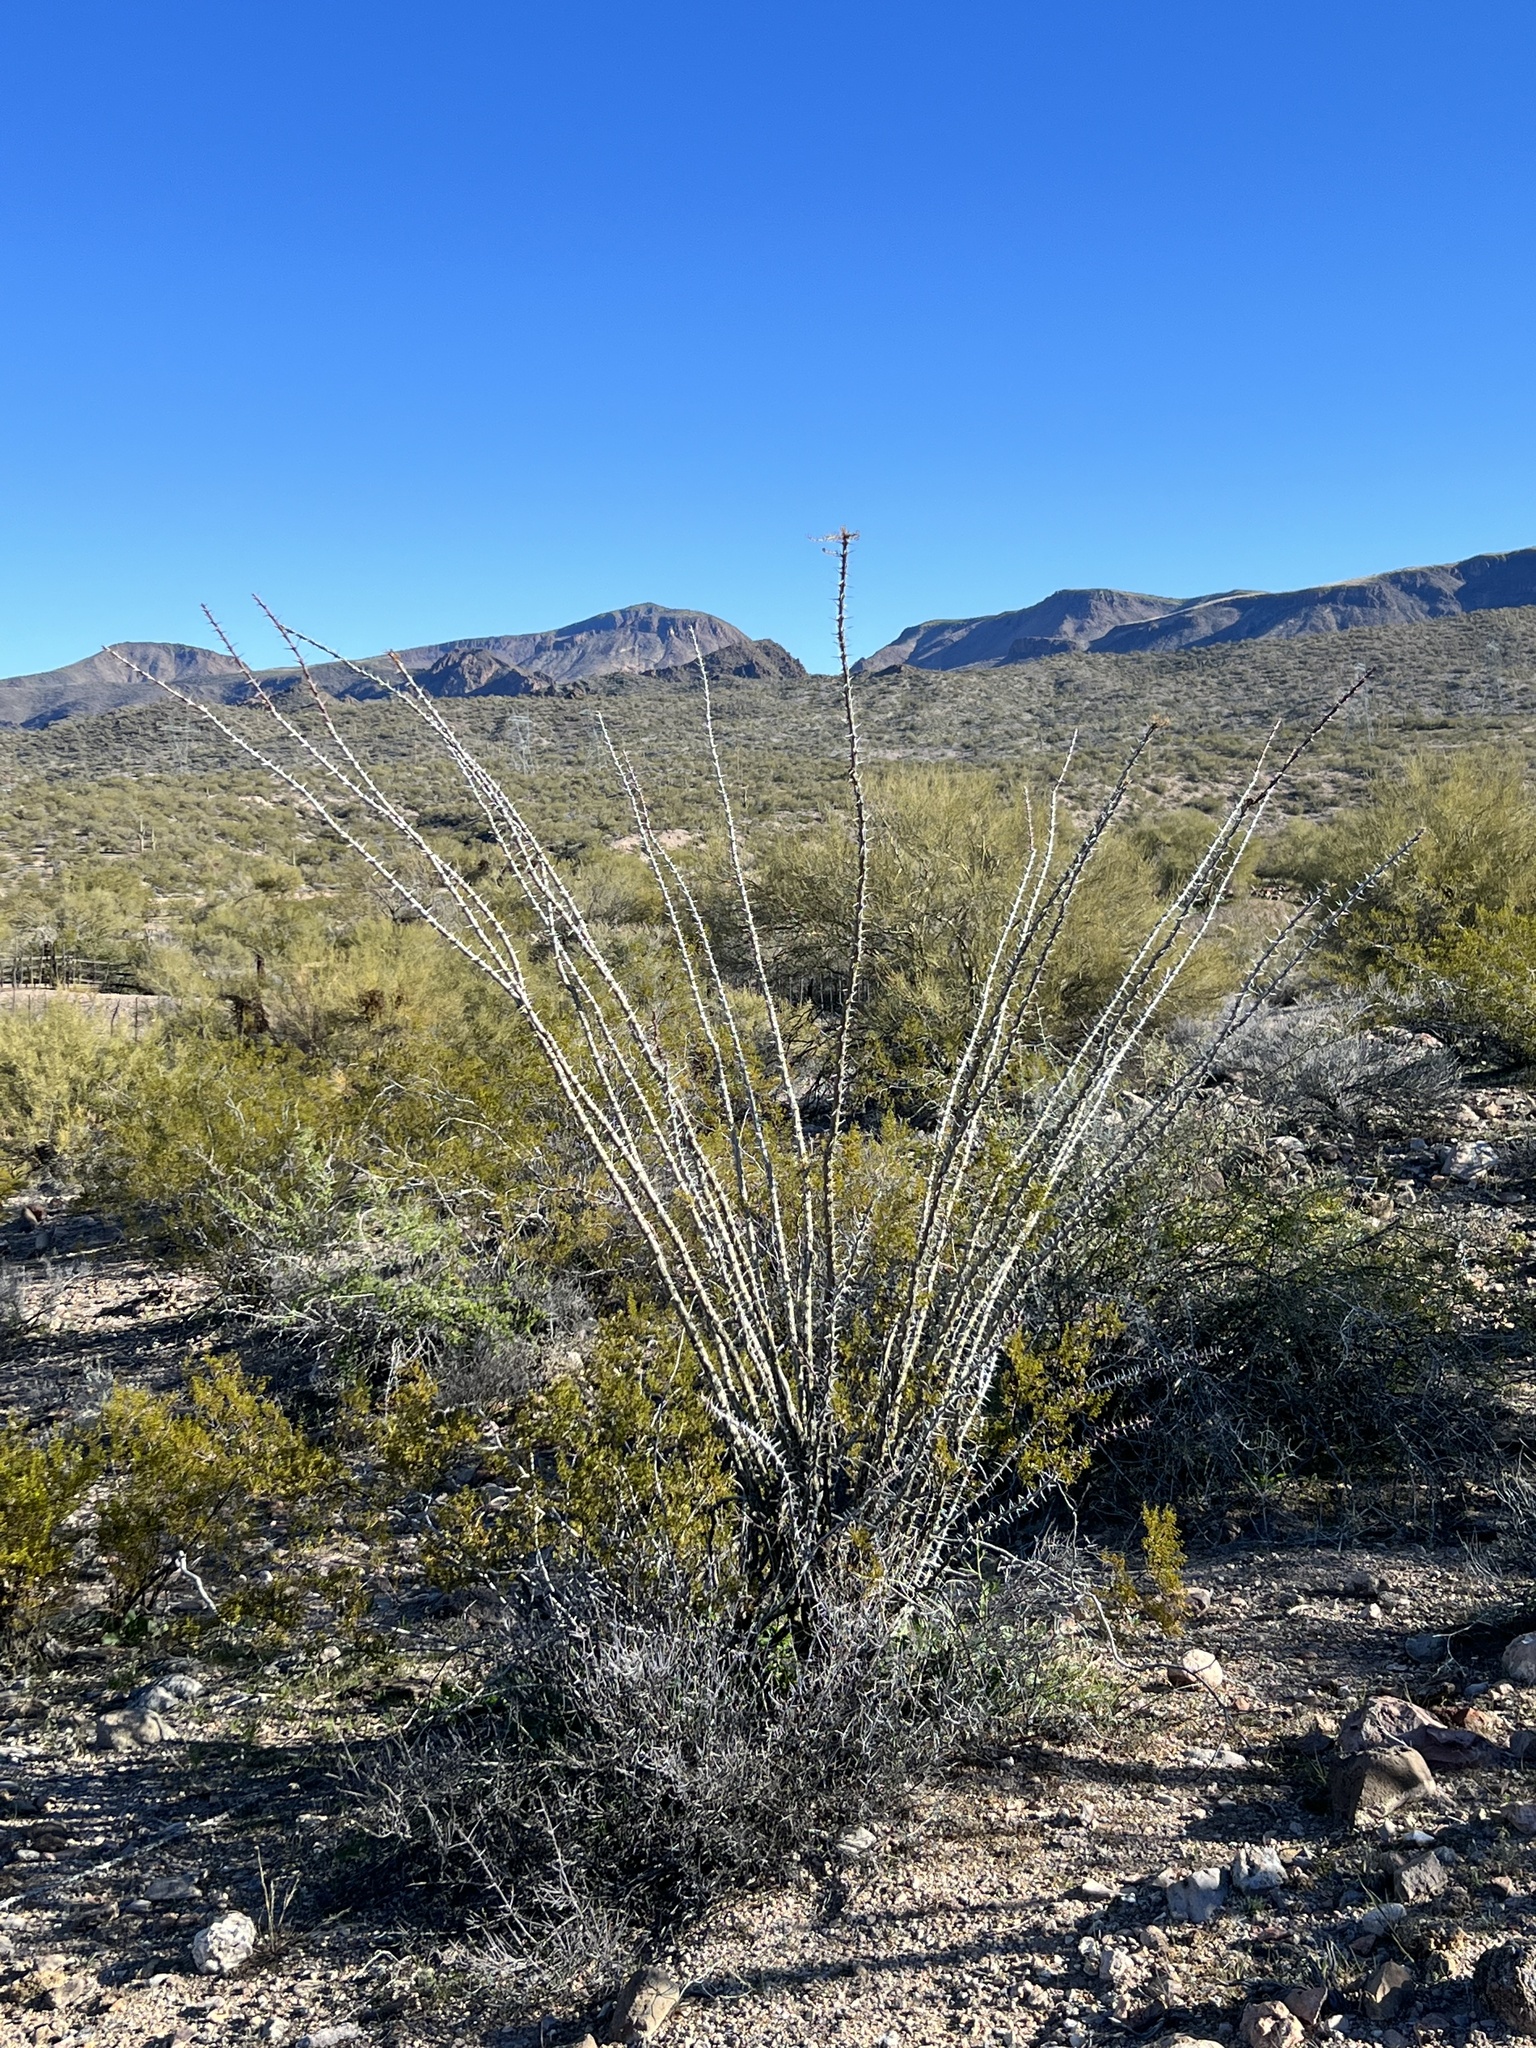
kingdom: Plantae
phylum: Tracheophyta
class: Magnoliopsida
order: Ericales
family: Fouquieriaceae
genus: Fouquieria
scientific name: Fouquieria splendens
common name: Vine-cactus
